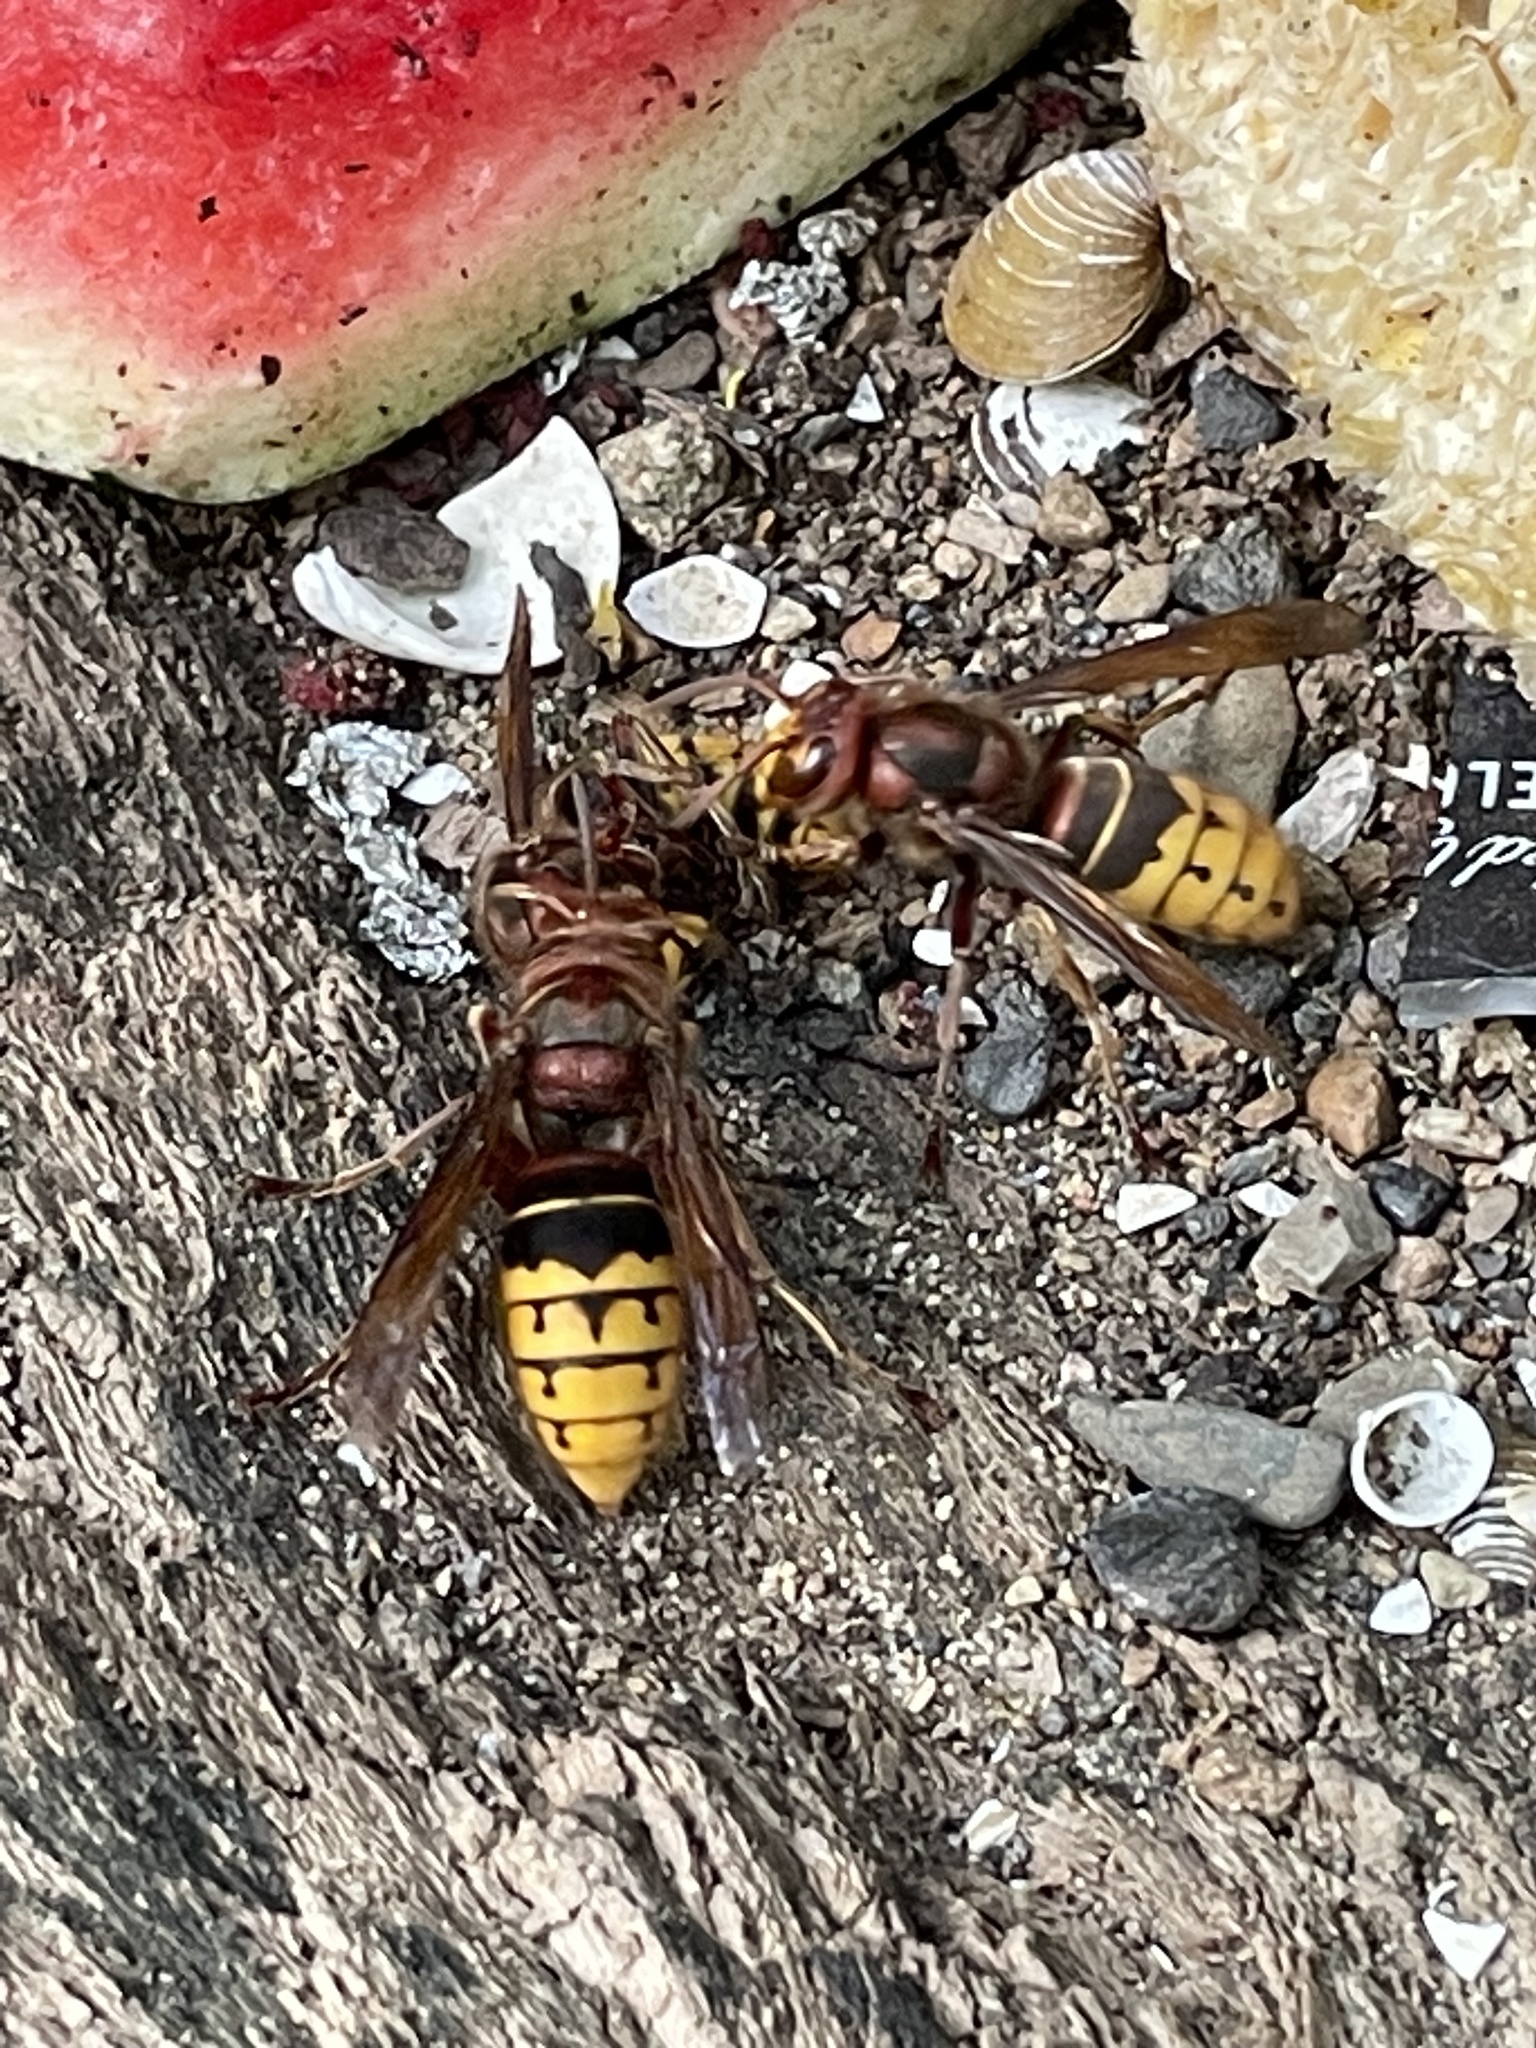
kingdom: Animalia
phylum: Arthropoda
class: Insecta
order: Hymenoptera
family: Vespidae
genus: Vespa
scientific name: Vespa crabro
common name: Hornet
